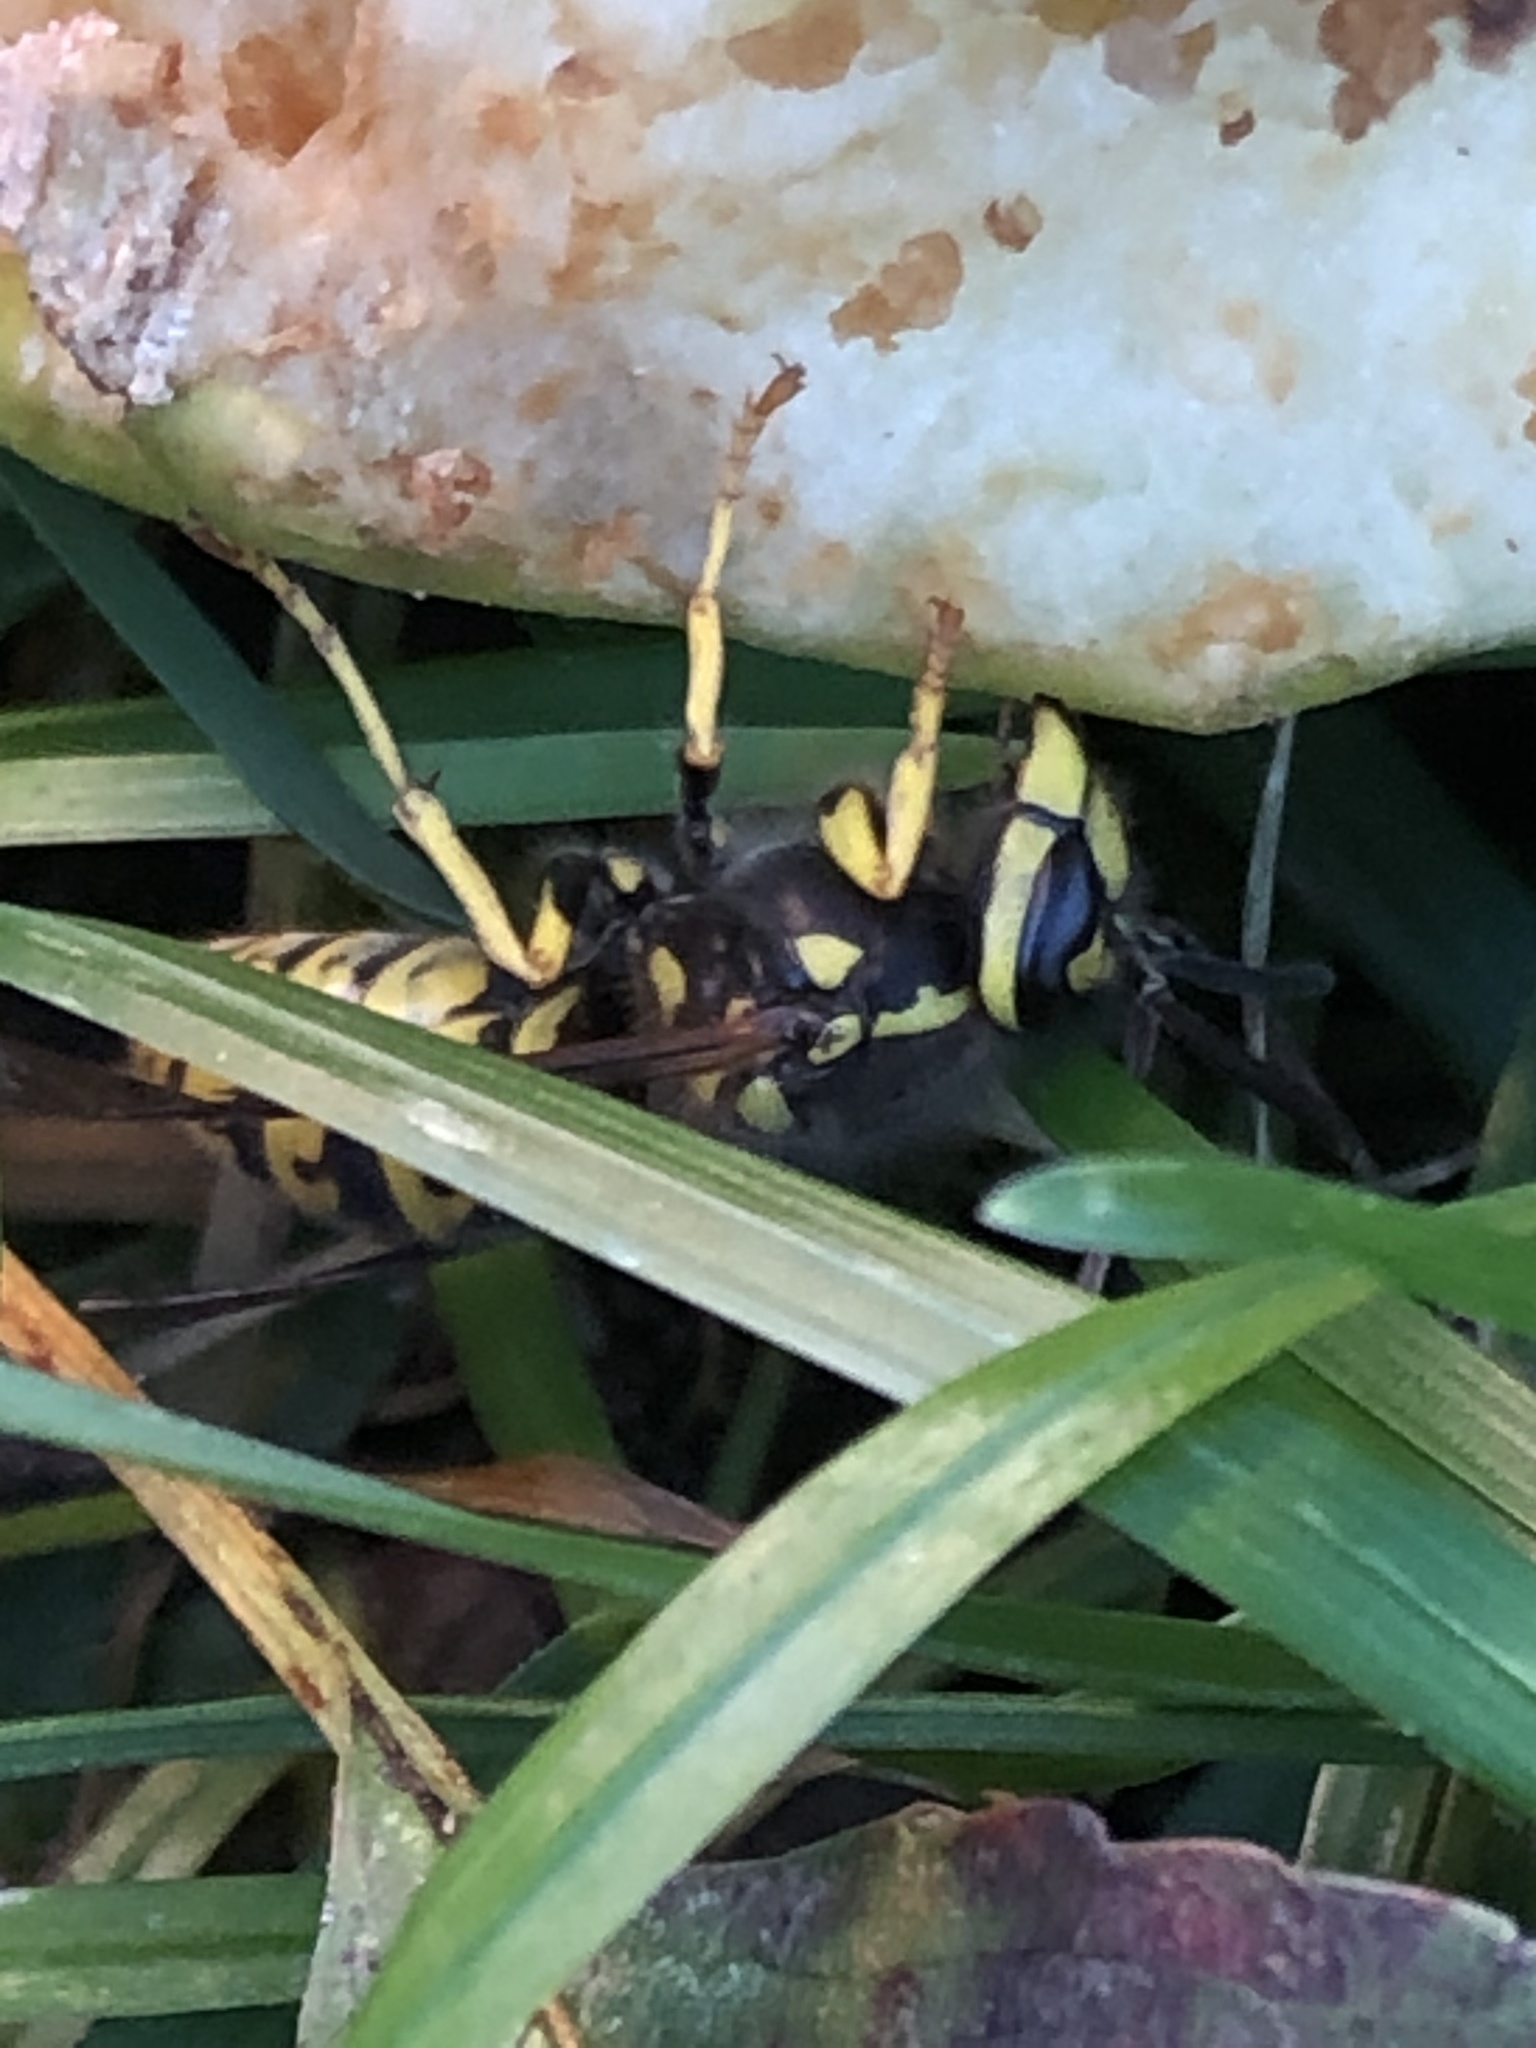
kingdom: Animalia
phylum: Arthropoda
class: Insecta
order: Hymenoptera
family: Vespidae
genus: Vespula
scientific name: Vespula germanica
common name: German wasp
